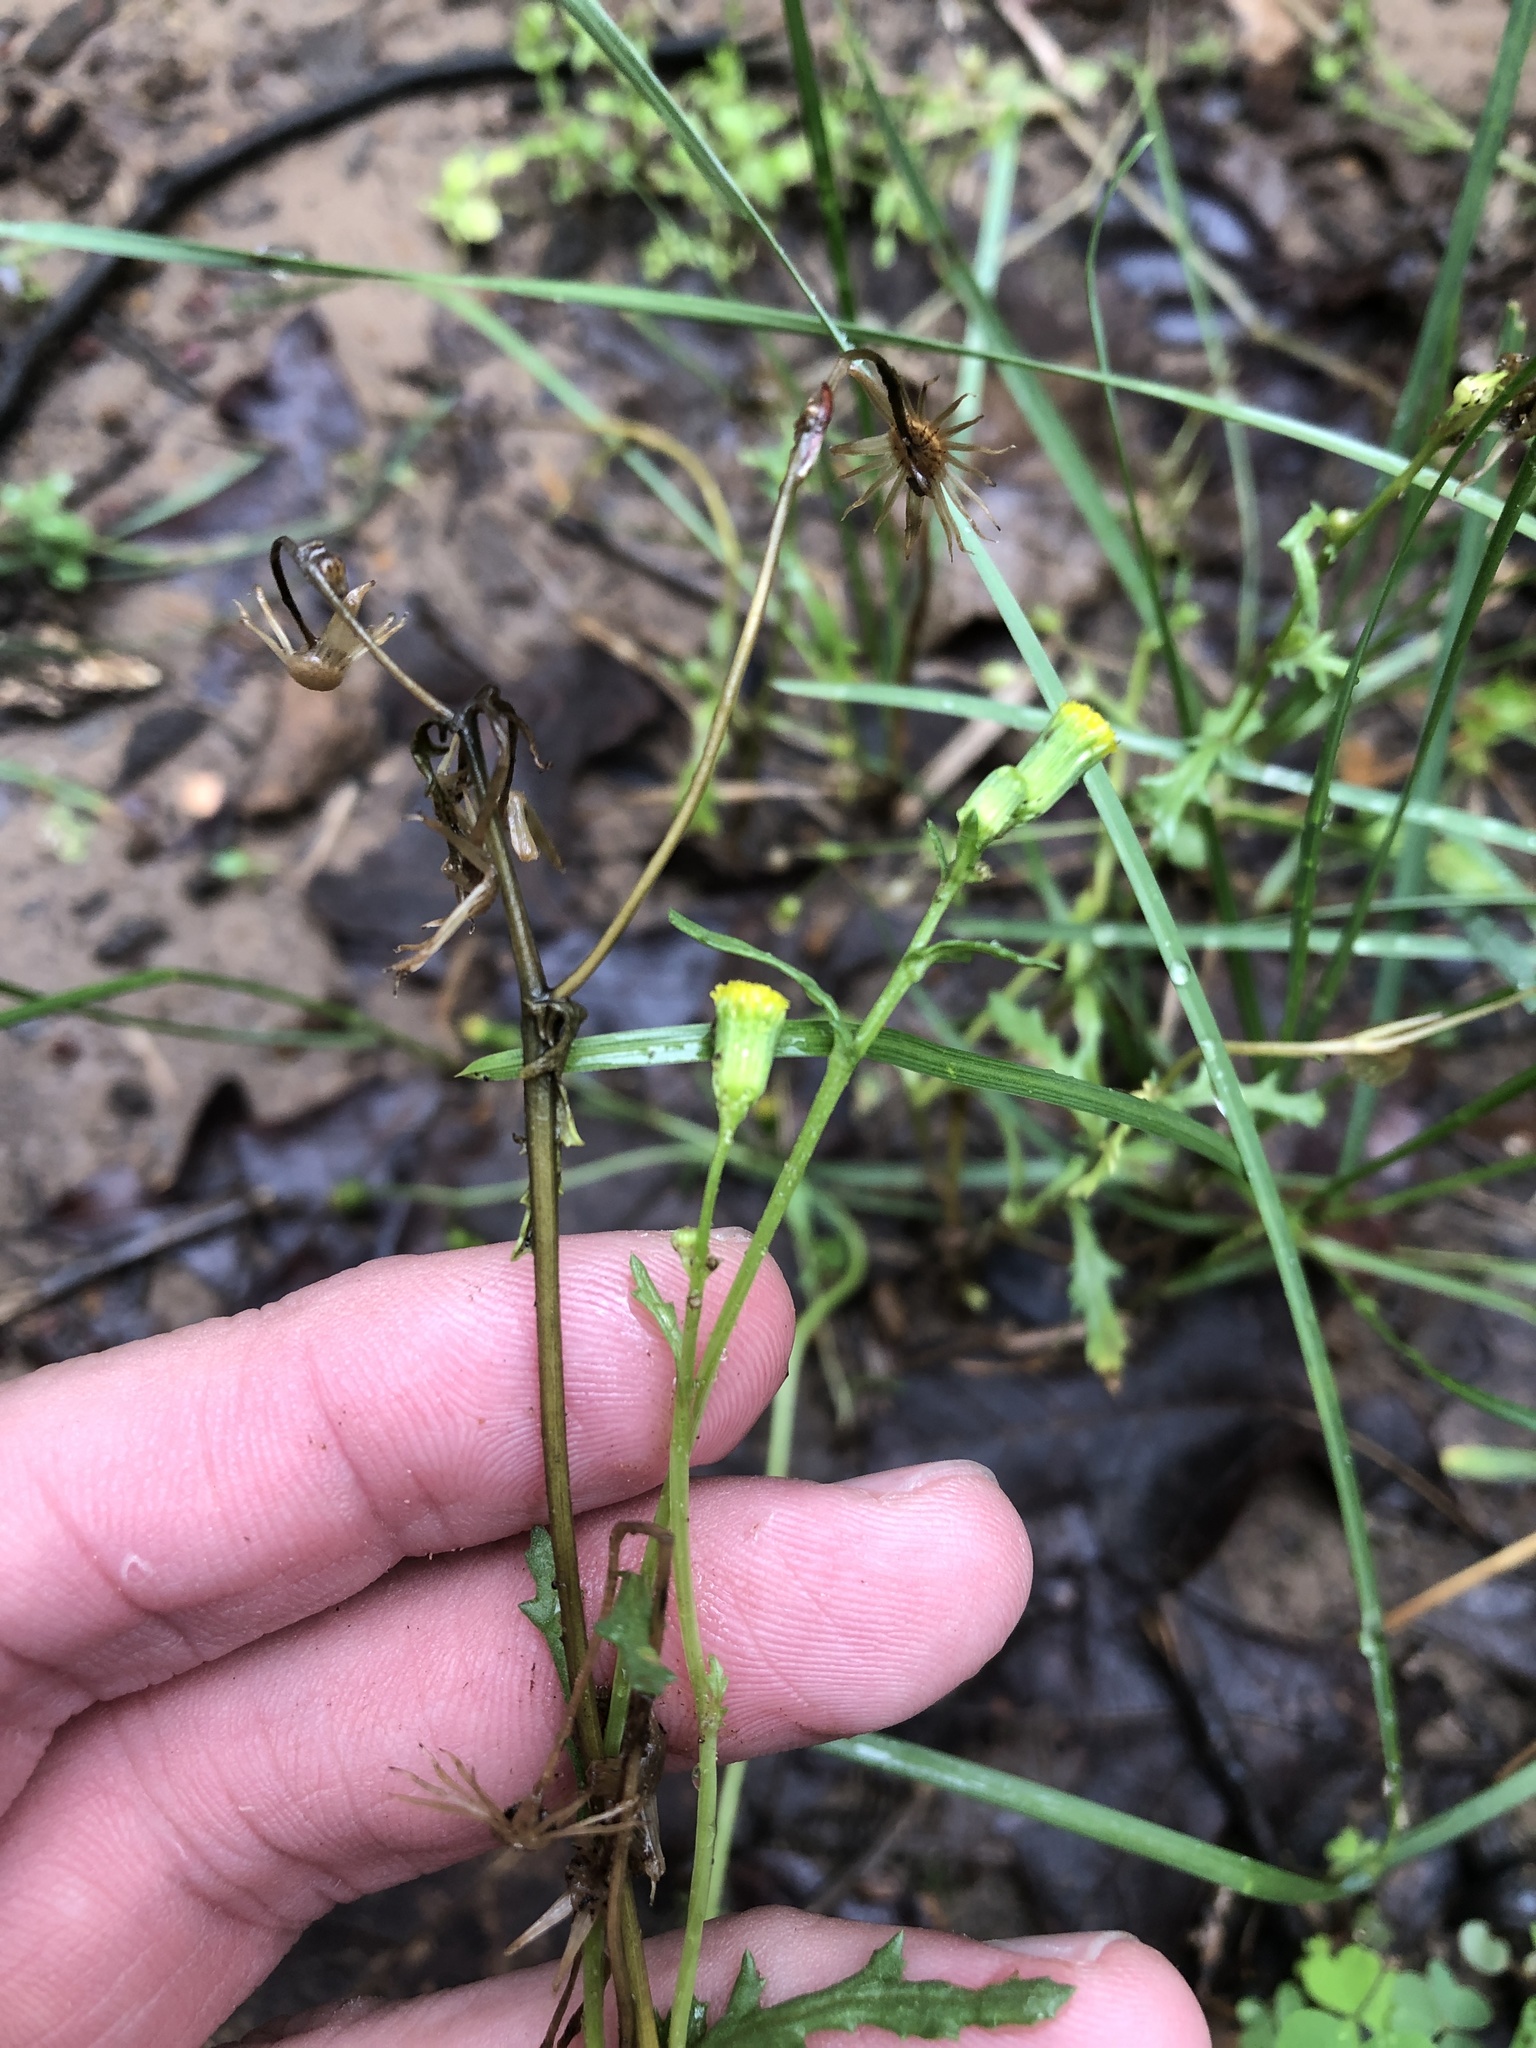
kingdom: Plantae
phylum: Tracheophyta
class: Magnoliopsida
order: Asterales
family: Asteraceae
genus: Senecio
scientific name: Senecio vulgaris
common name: Old-man-in-the-spring
